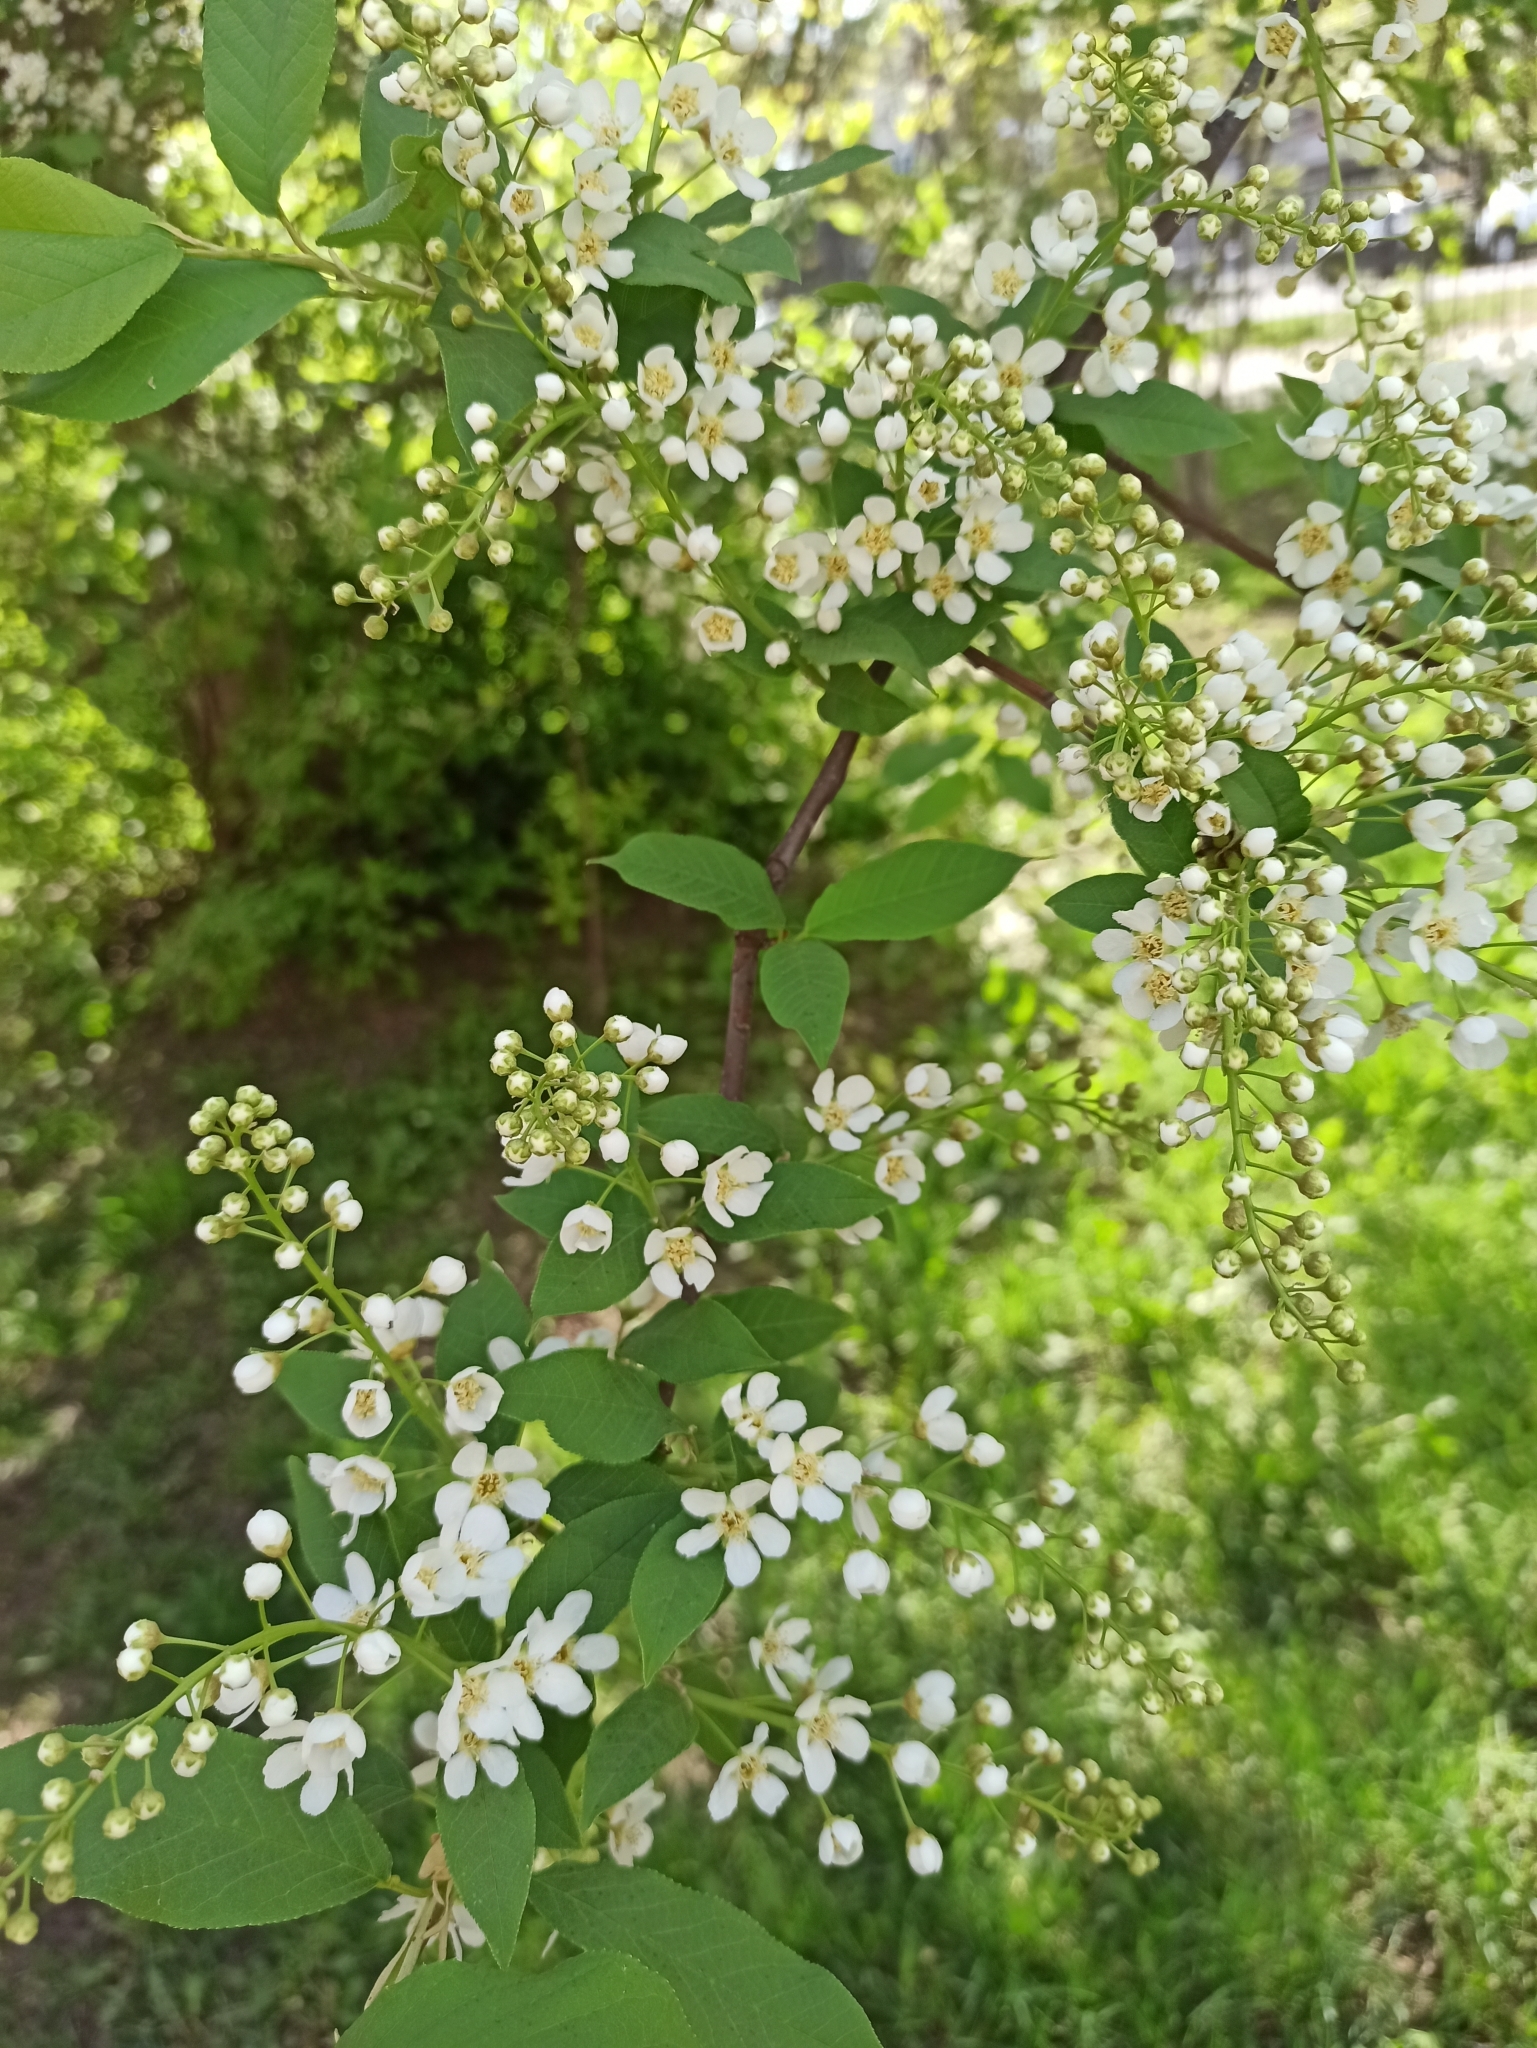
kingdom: Plantae
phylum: Tracheophyta
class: Magnoliopsida
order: Rosales
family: Rosaceae
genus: Prunus
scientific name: Prunus padus
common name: Bird cherry
